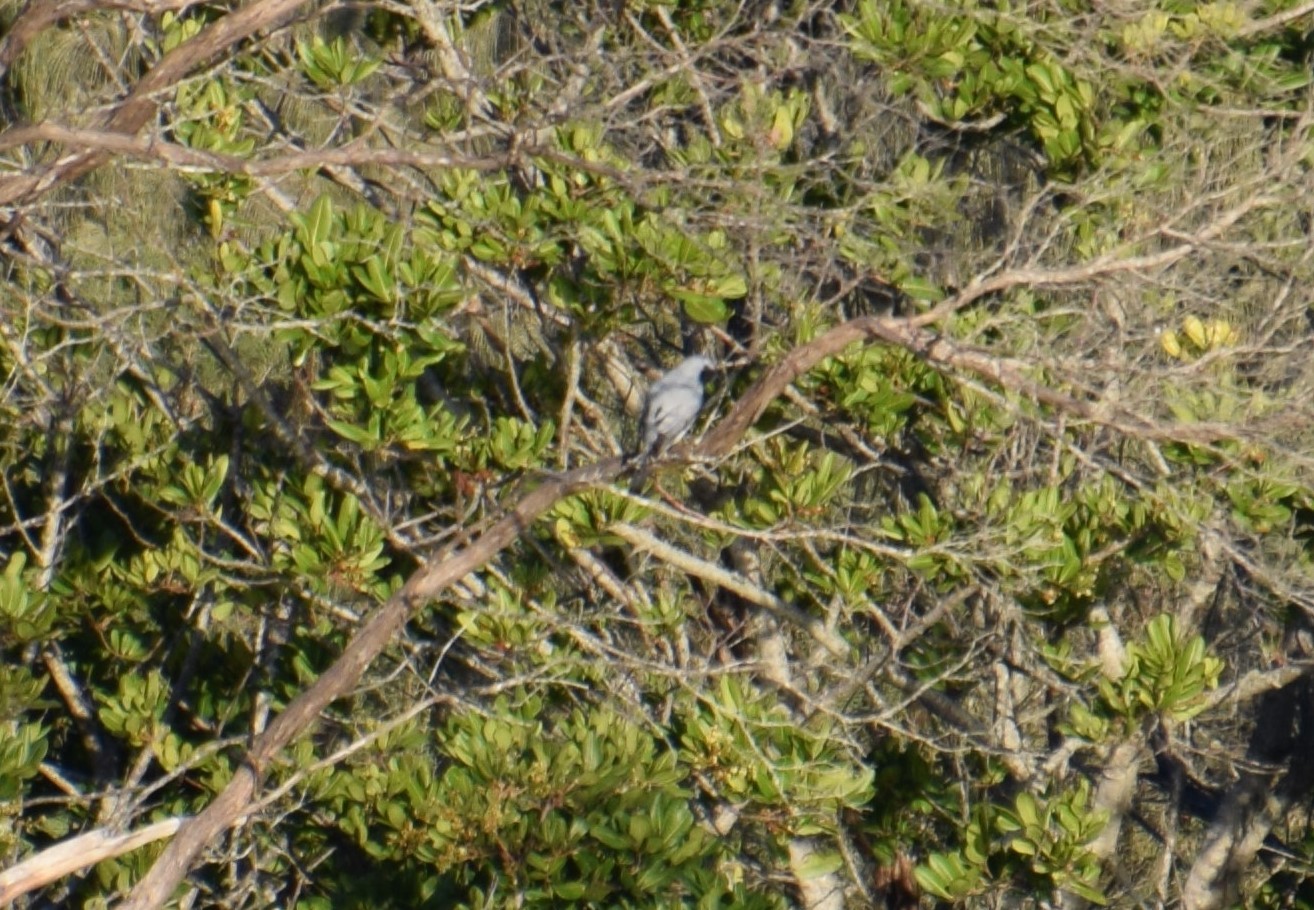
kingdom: Animalia
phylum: Chordata
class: Aves
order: Passeriformes
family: Campephagidae
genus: Coracina
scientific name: Coracina novaehollandiae
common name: Black-faced cuckooshrike
